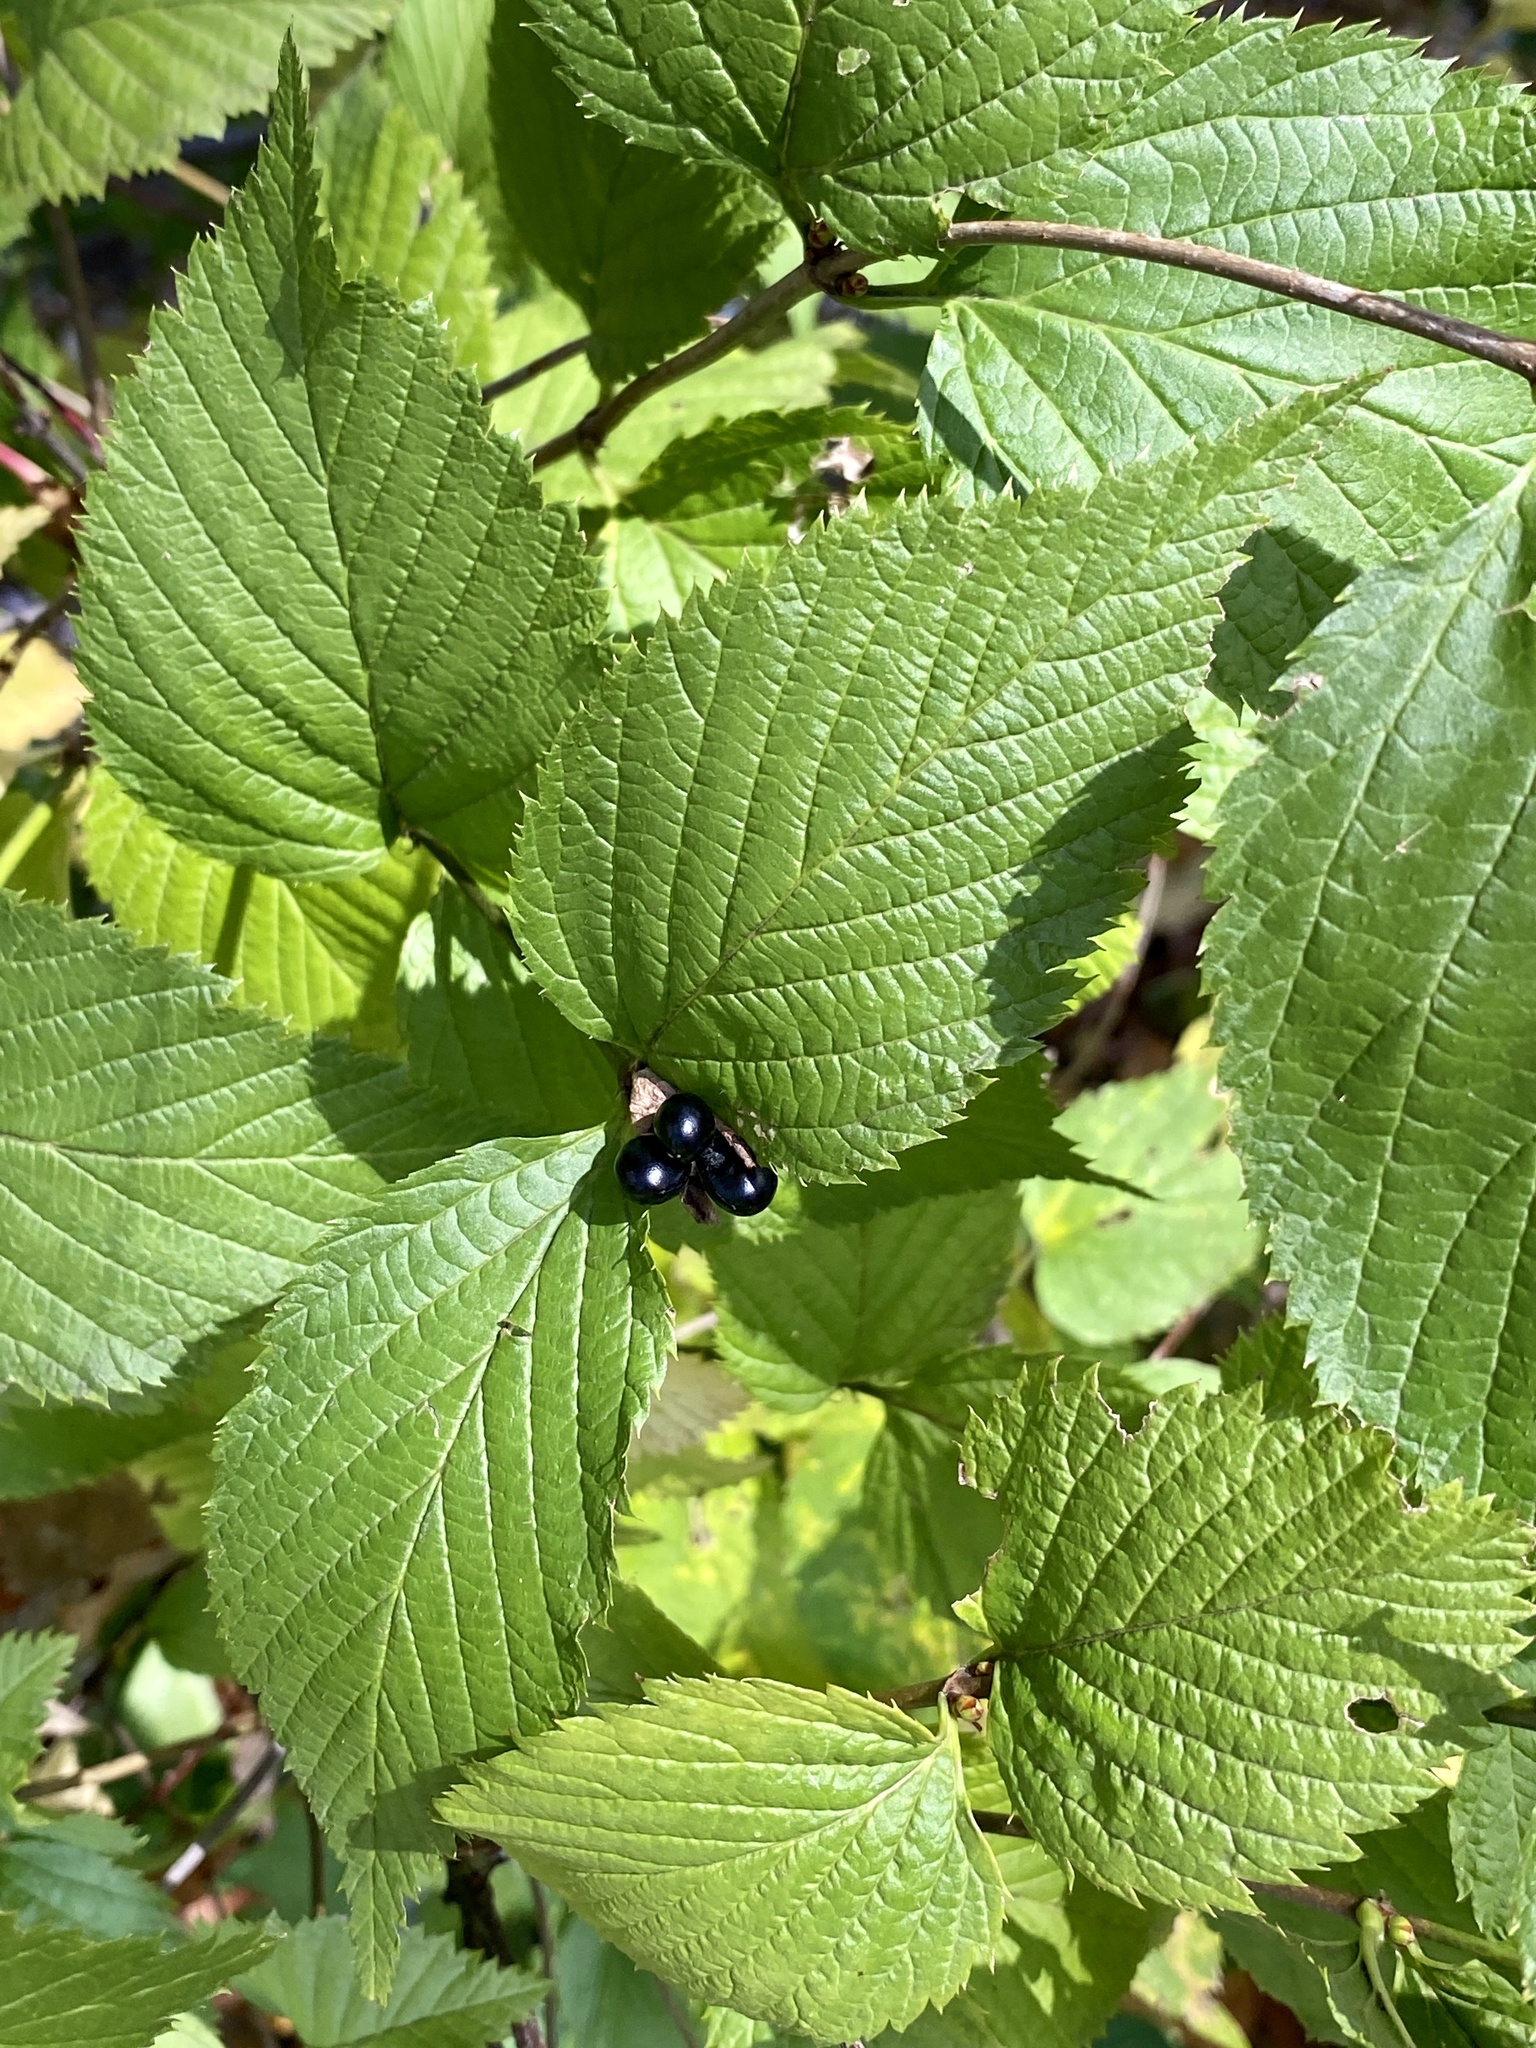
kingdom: Plantae
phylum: Tracheophyta
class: Magnoliopsida
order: Rosales
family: Rosaceae
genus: Rhodotypos
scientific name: Rhodotypos scandens
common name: Jetbead
